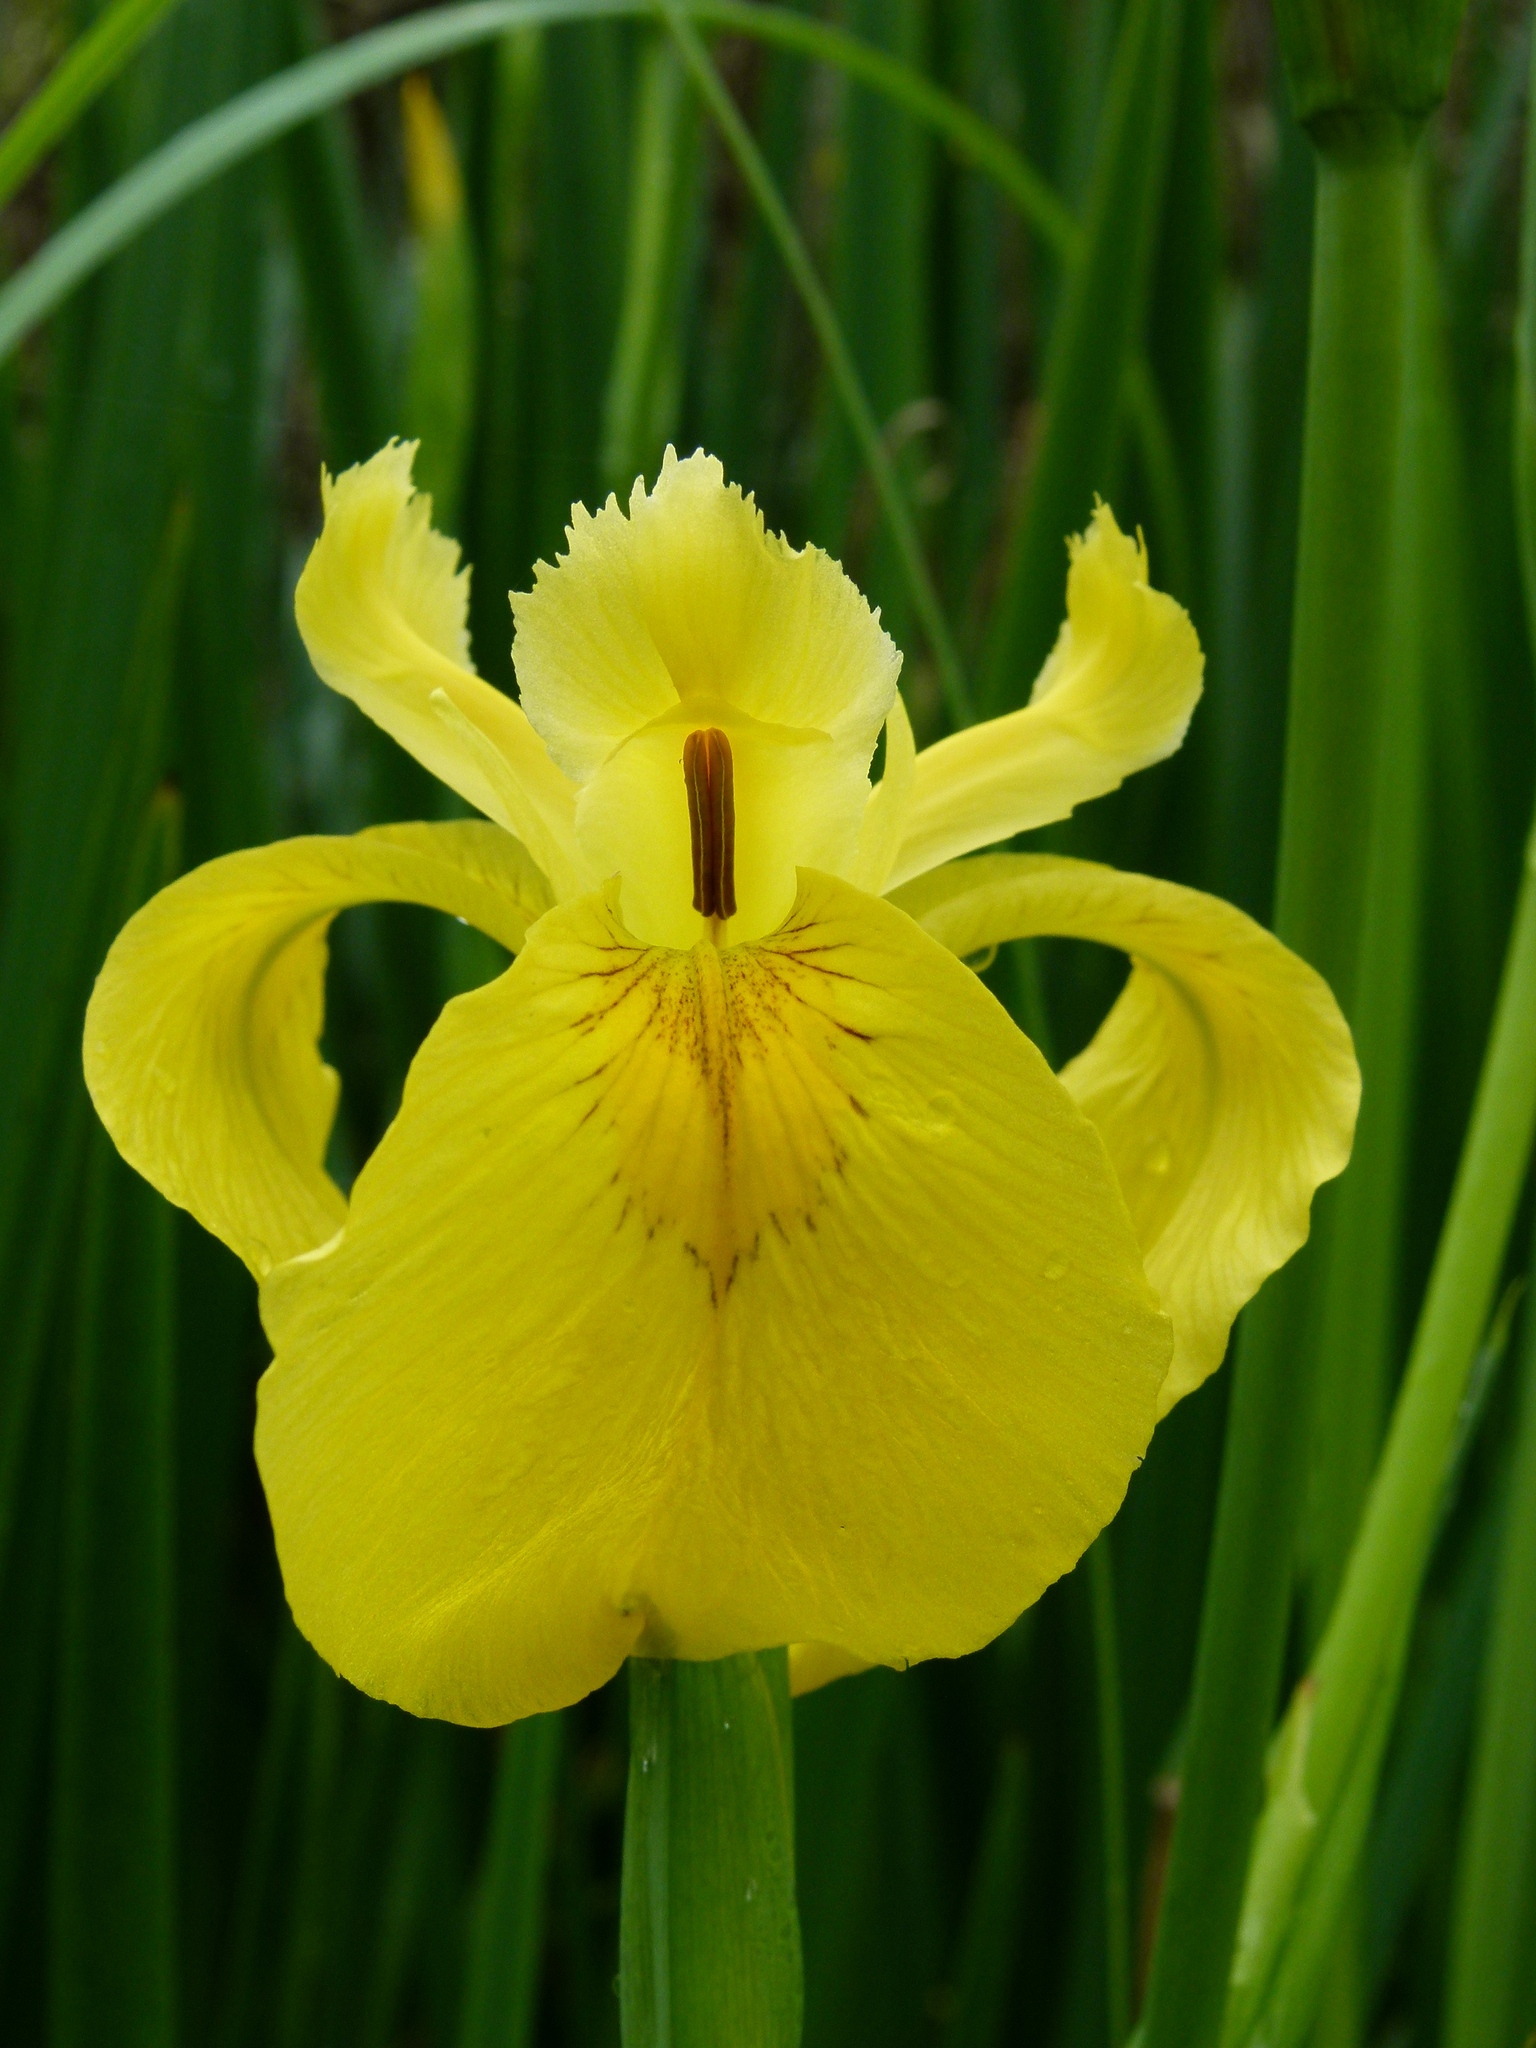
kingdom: Plantae
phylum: Tracheophyta
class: Liliopsida
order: Asparagales
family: Iridaceae
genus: Iris
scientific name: Iris pseudacorus
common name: Yellow flag
